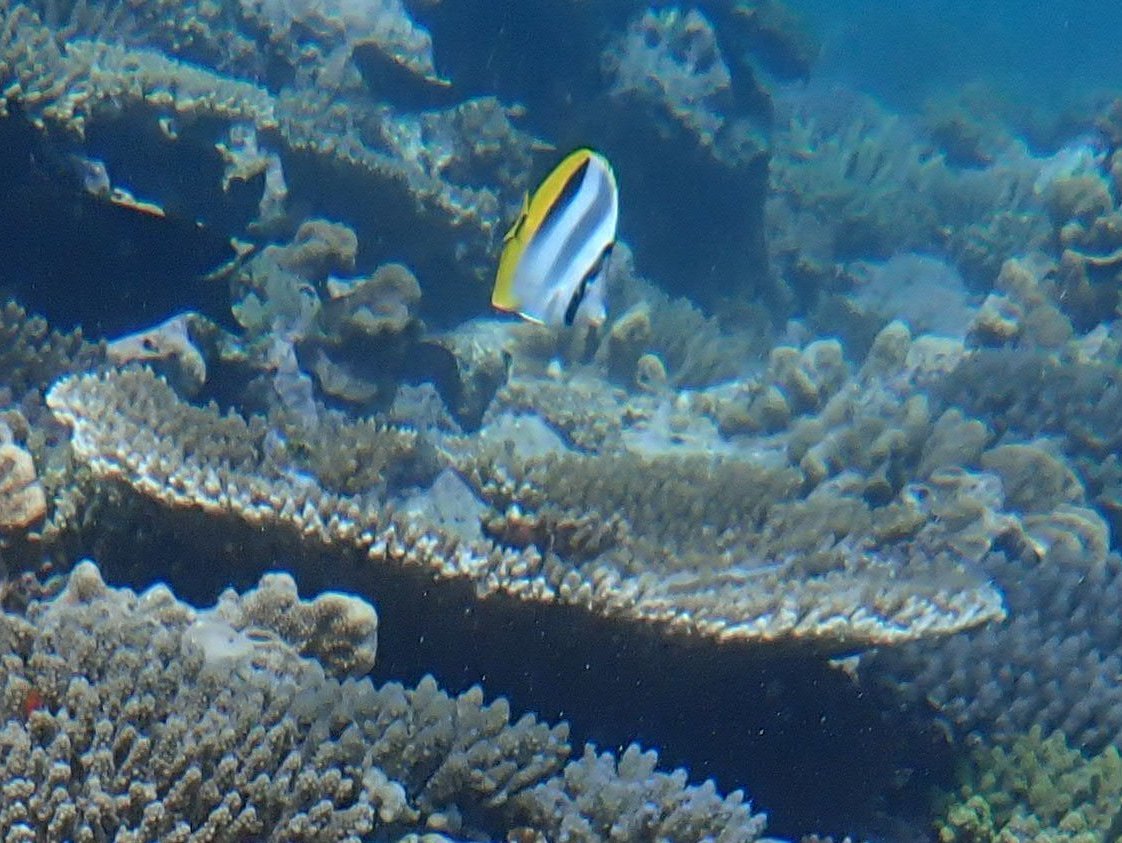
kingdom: Animalia
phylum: Chordata
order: Perciformes
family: Chaetodontidae
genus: Chaetodon
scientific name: Chaetodon ulietensis
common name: Pacific double-saddle butterflyfish
